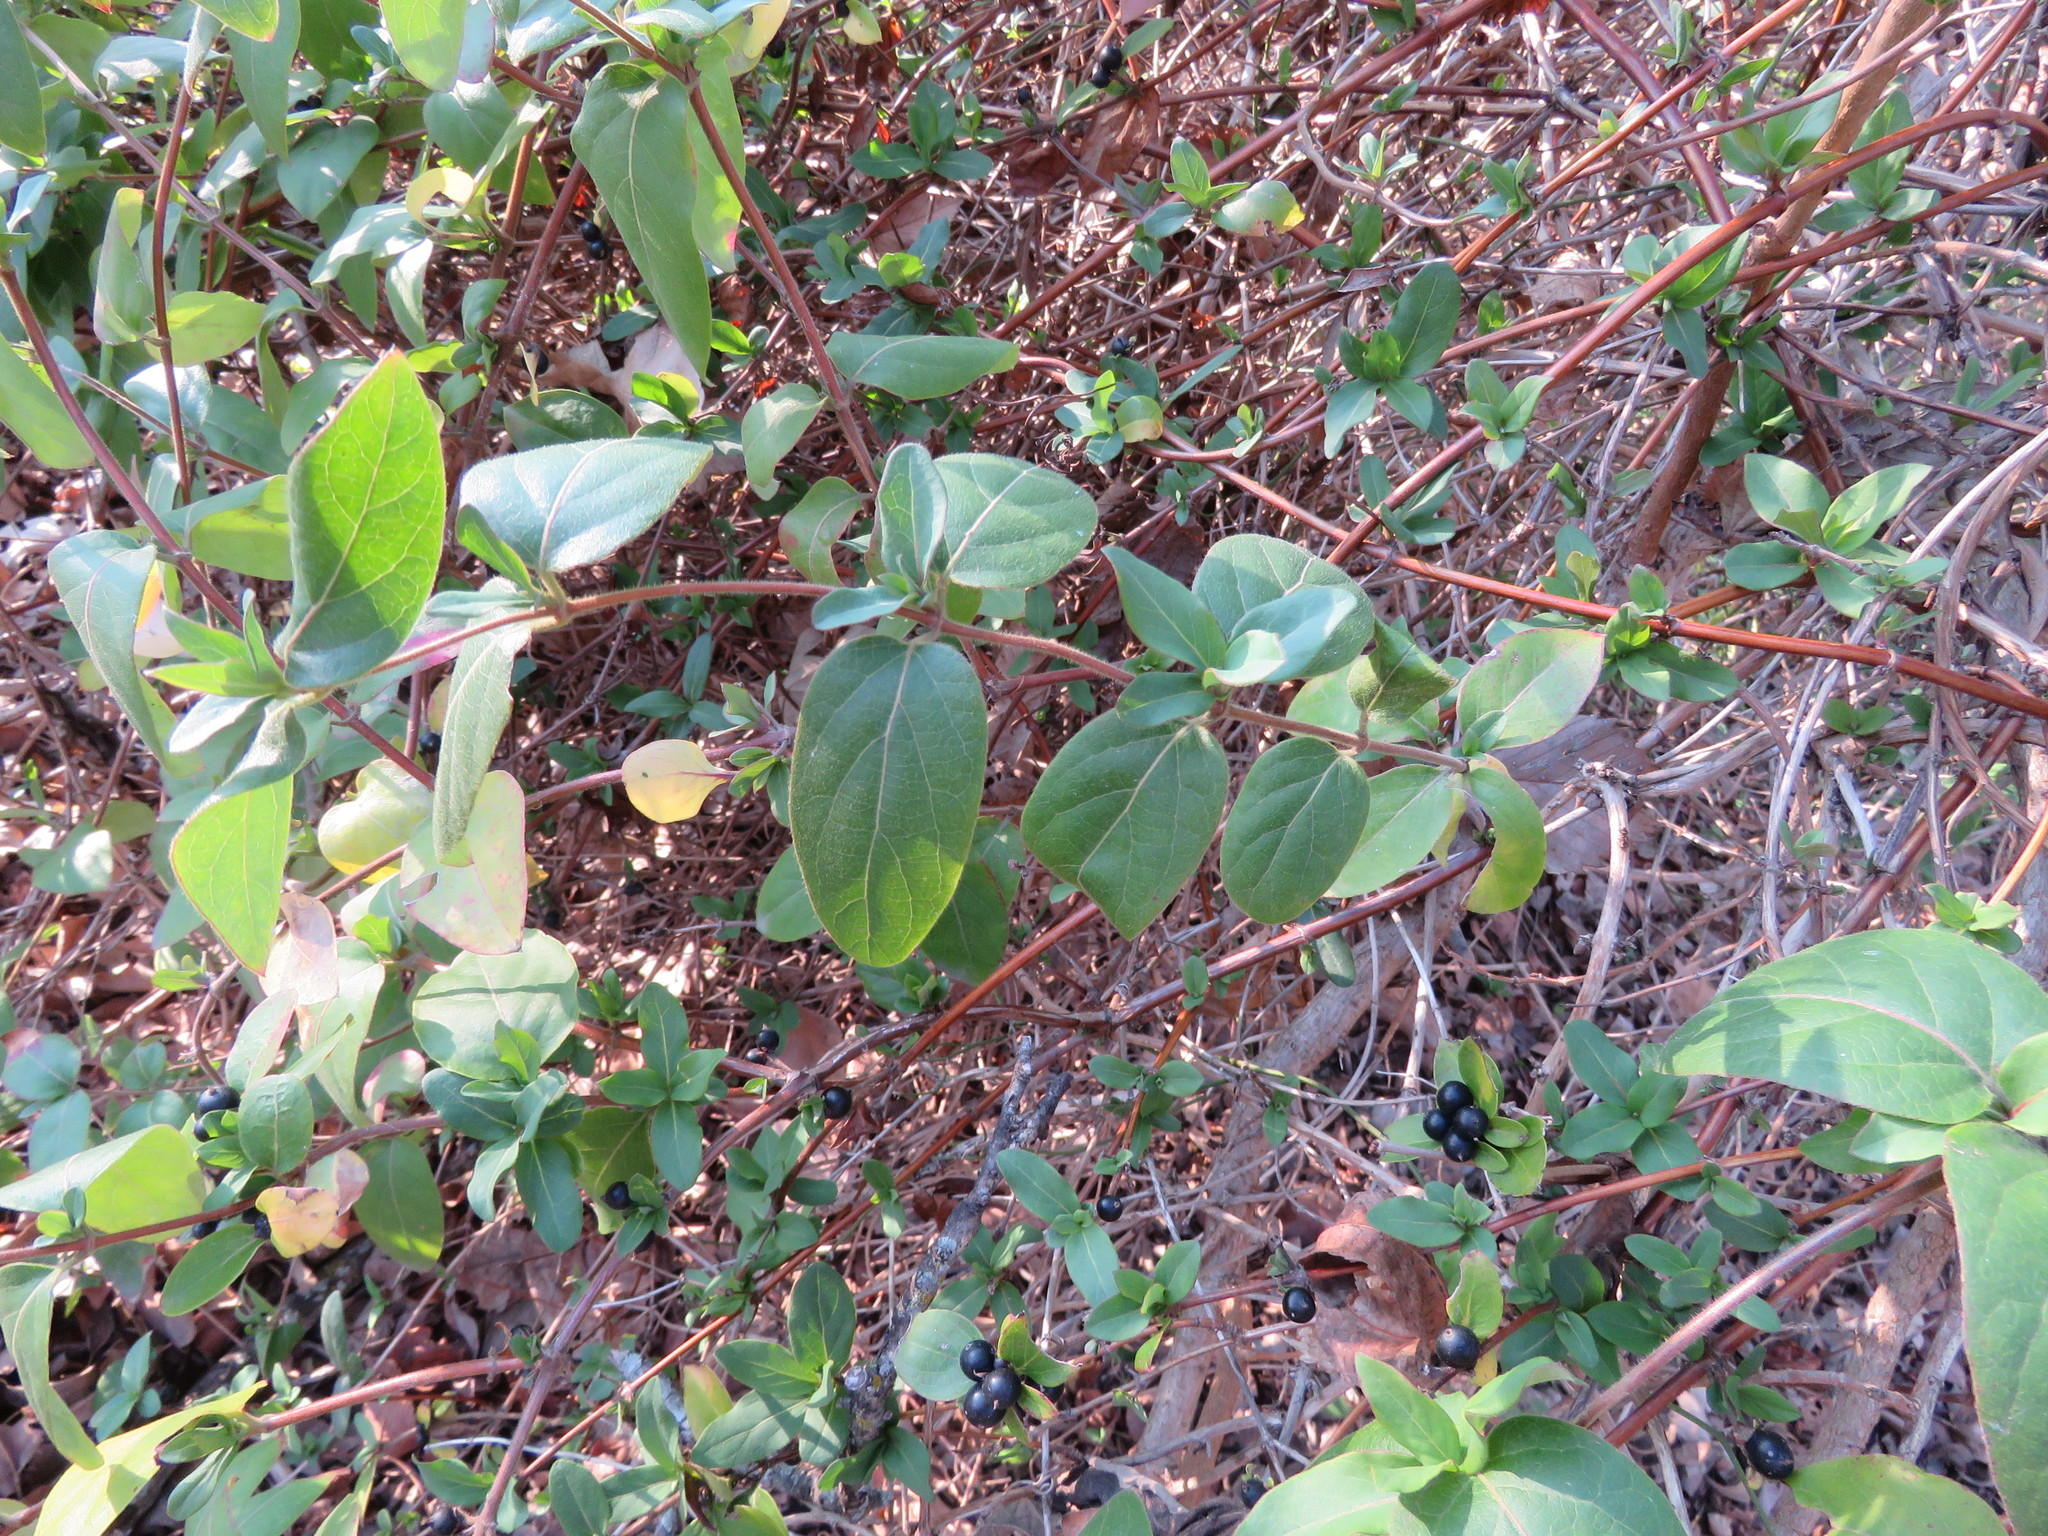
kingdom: Plantae
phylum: Tracheophyta
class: Magnoliopsida
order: Dipsacales
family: Caprifoliaceae
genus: Lonicera
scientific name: Lonicera japonica
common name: Japanese honeysuckle
